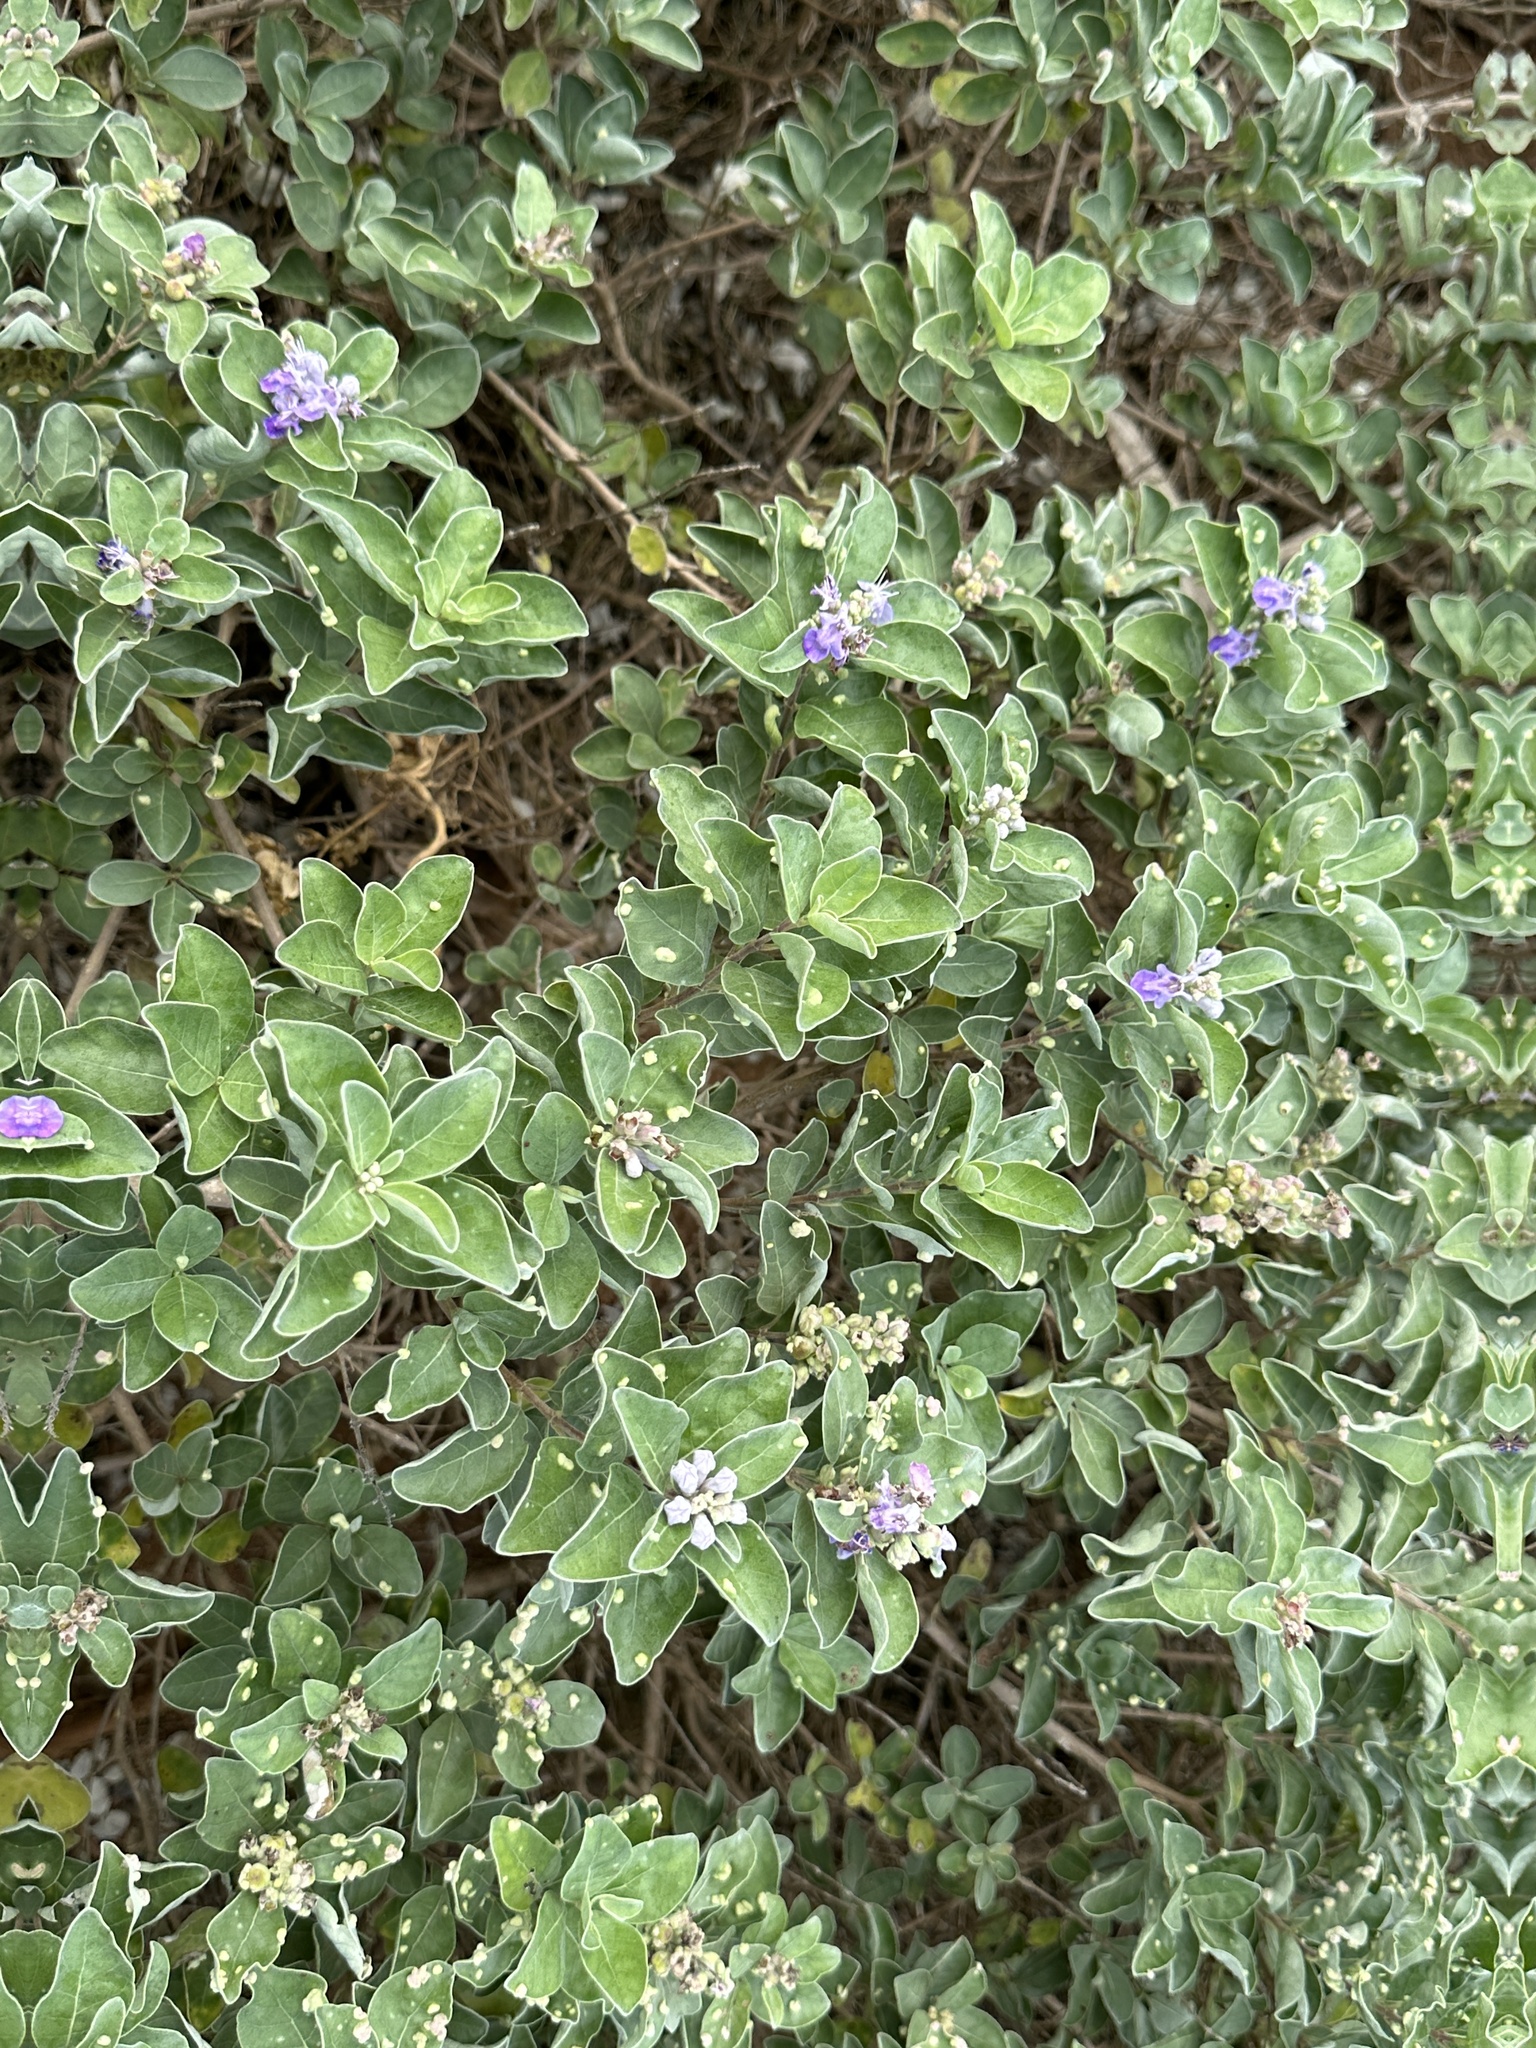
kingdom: Plantae
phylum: Tracheophyta
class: Magnoliopsida
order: Lamiales
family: Lamiaceae
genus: Vitex
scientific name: Vitex rotundifolia
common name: Beach vitex
